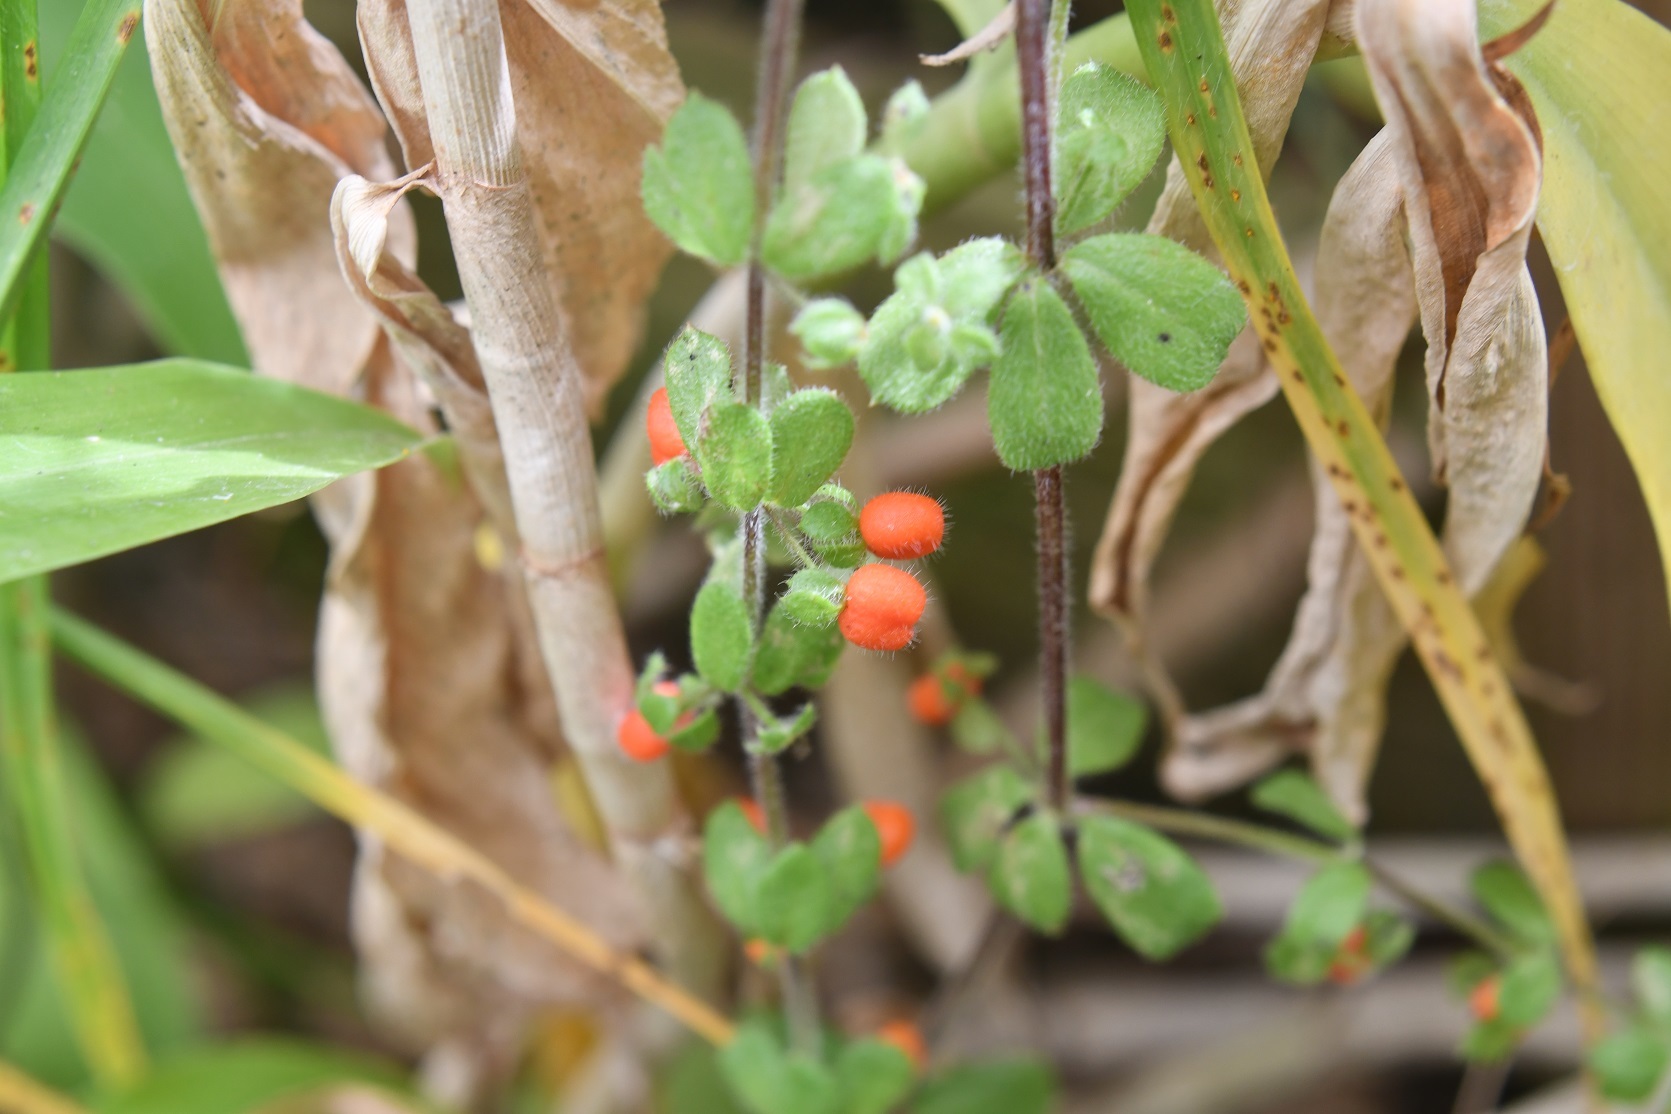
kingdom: Plantae
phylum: Tracheophyta
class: Magnoliopsida
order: Gentianales
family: Rubiaceae
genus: Galium
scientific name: Galium hypocarpium
